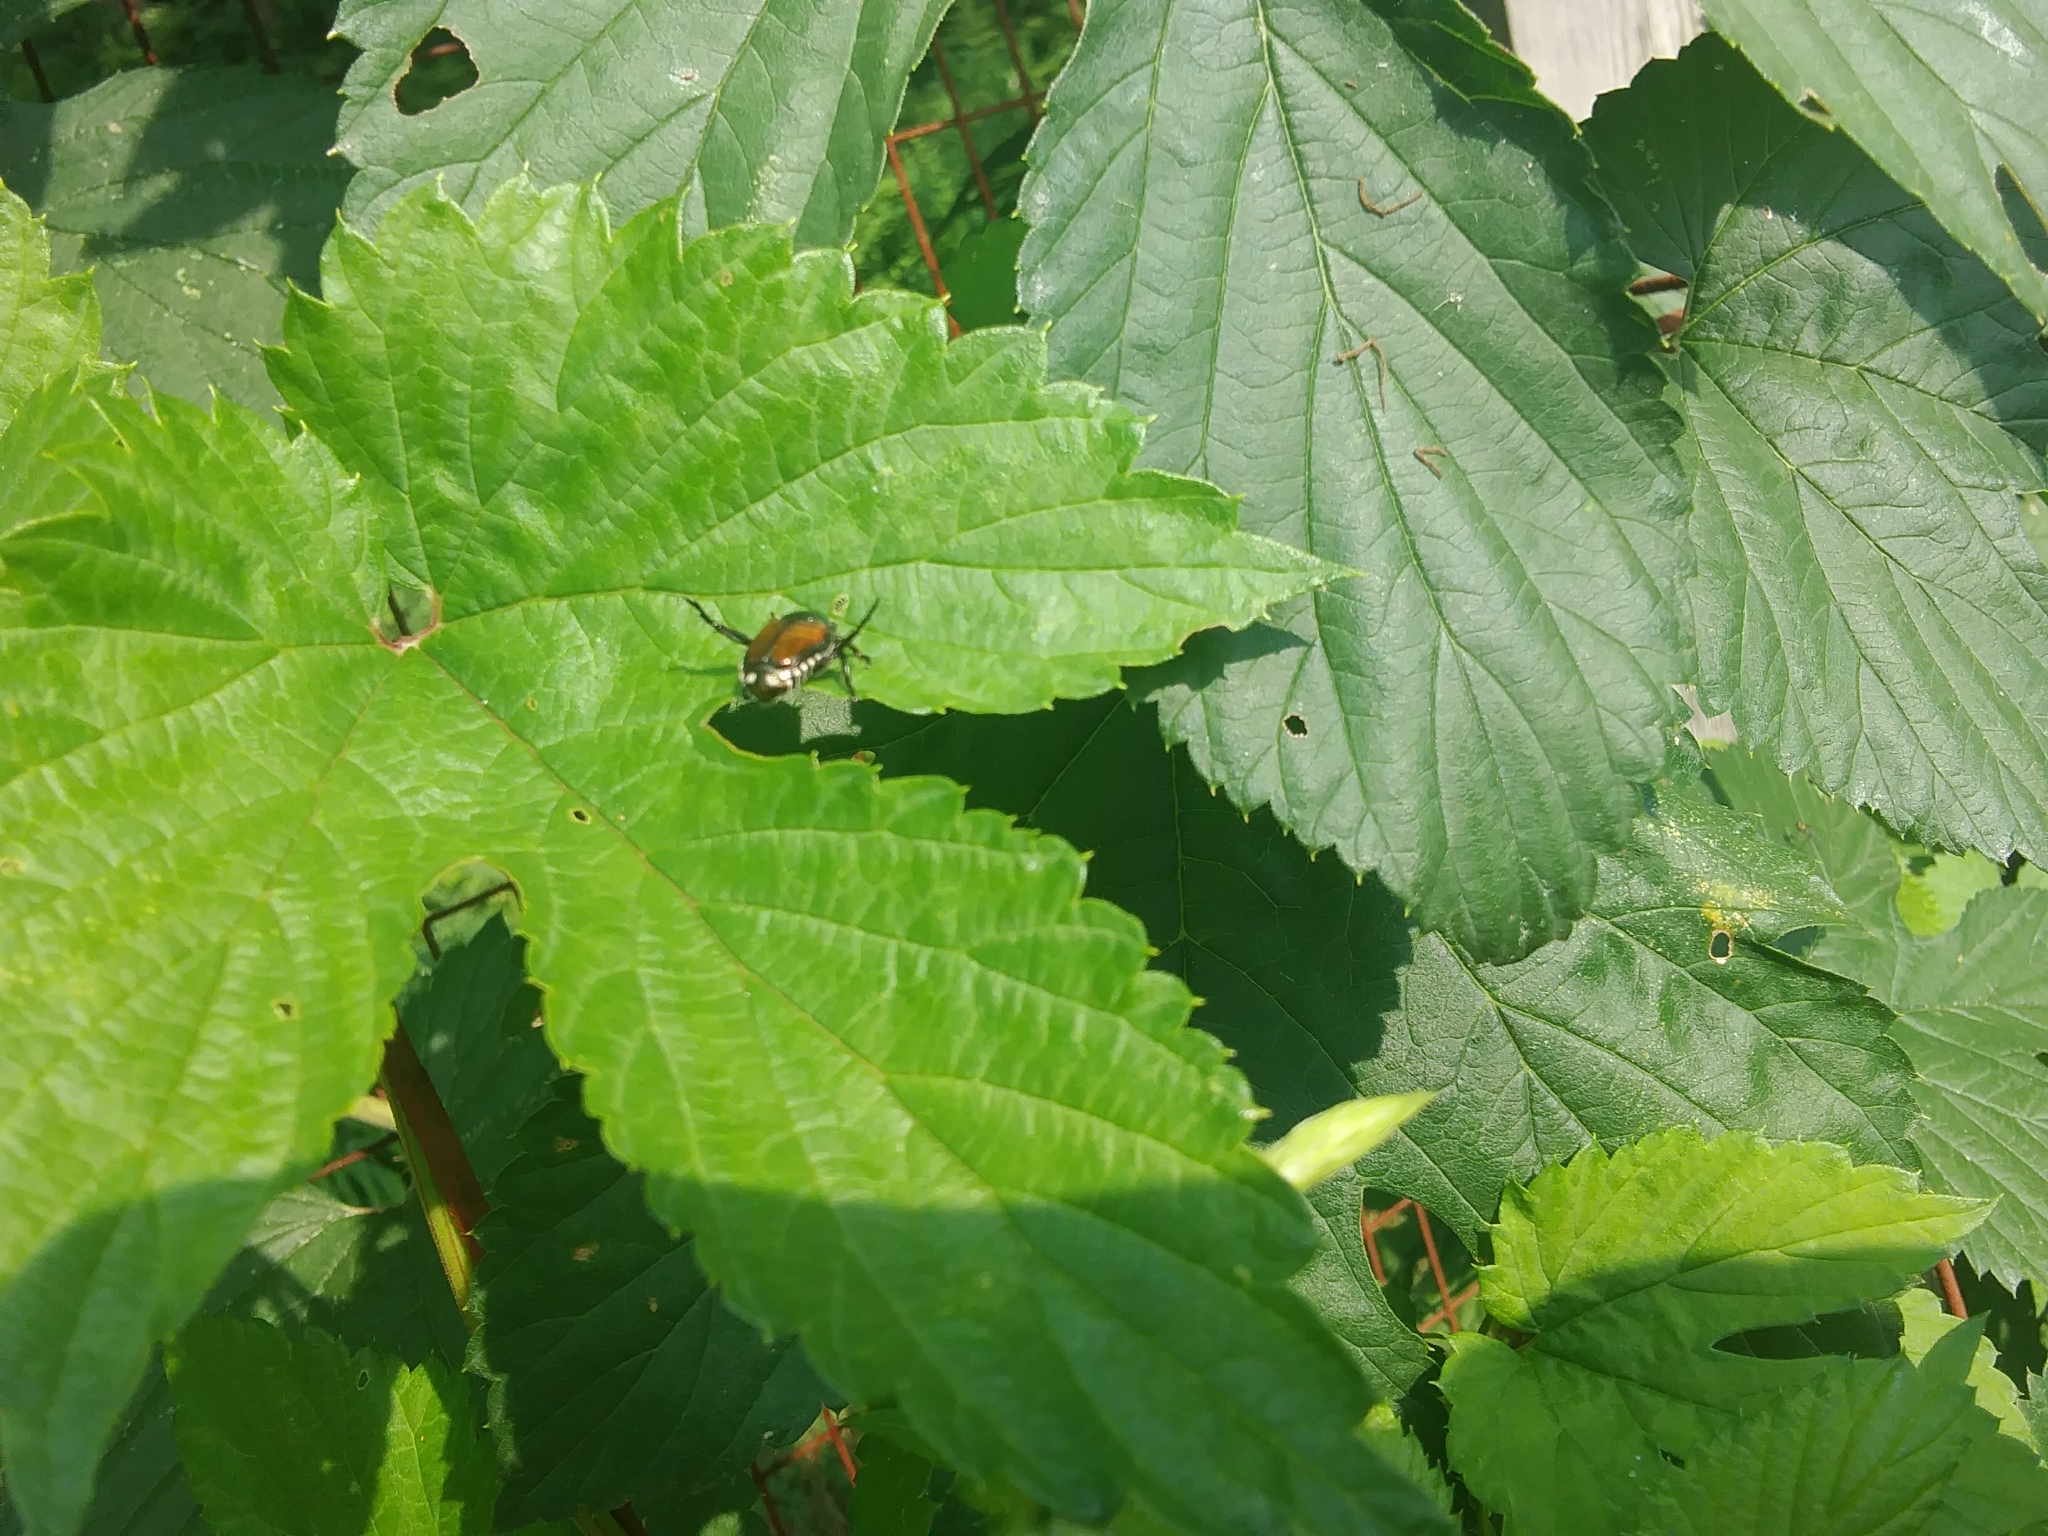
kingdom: Animalia
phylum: Arthropoda
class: Insecta
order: Coleoptera
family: Scarabaeidae
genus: Popillia
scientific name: Popillia japonica
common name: Japanese beetle
